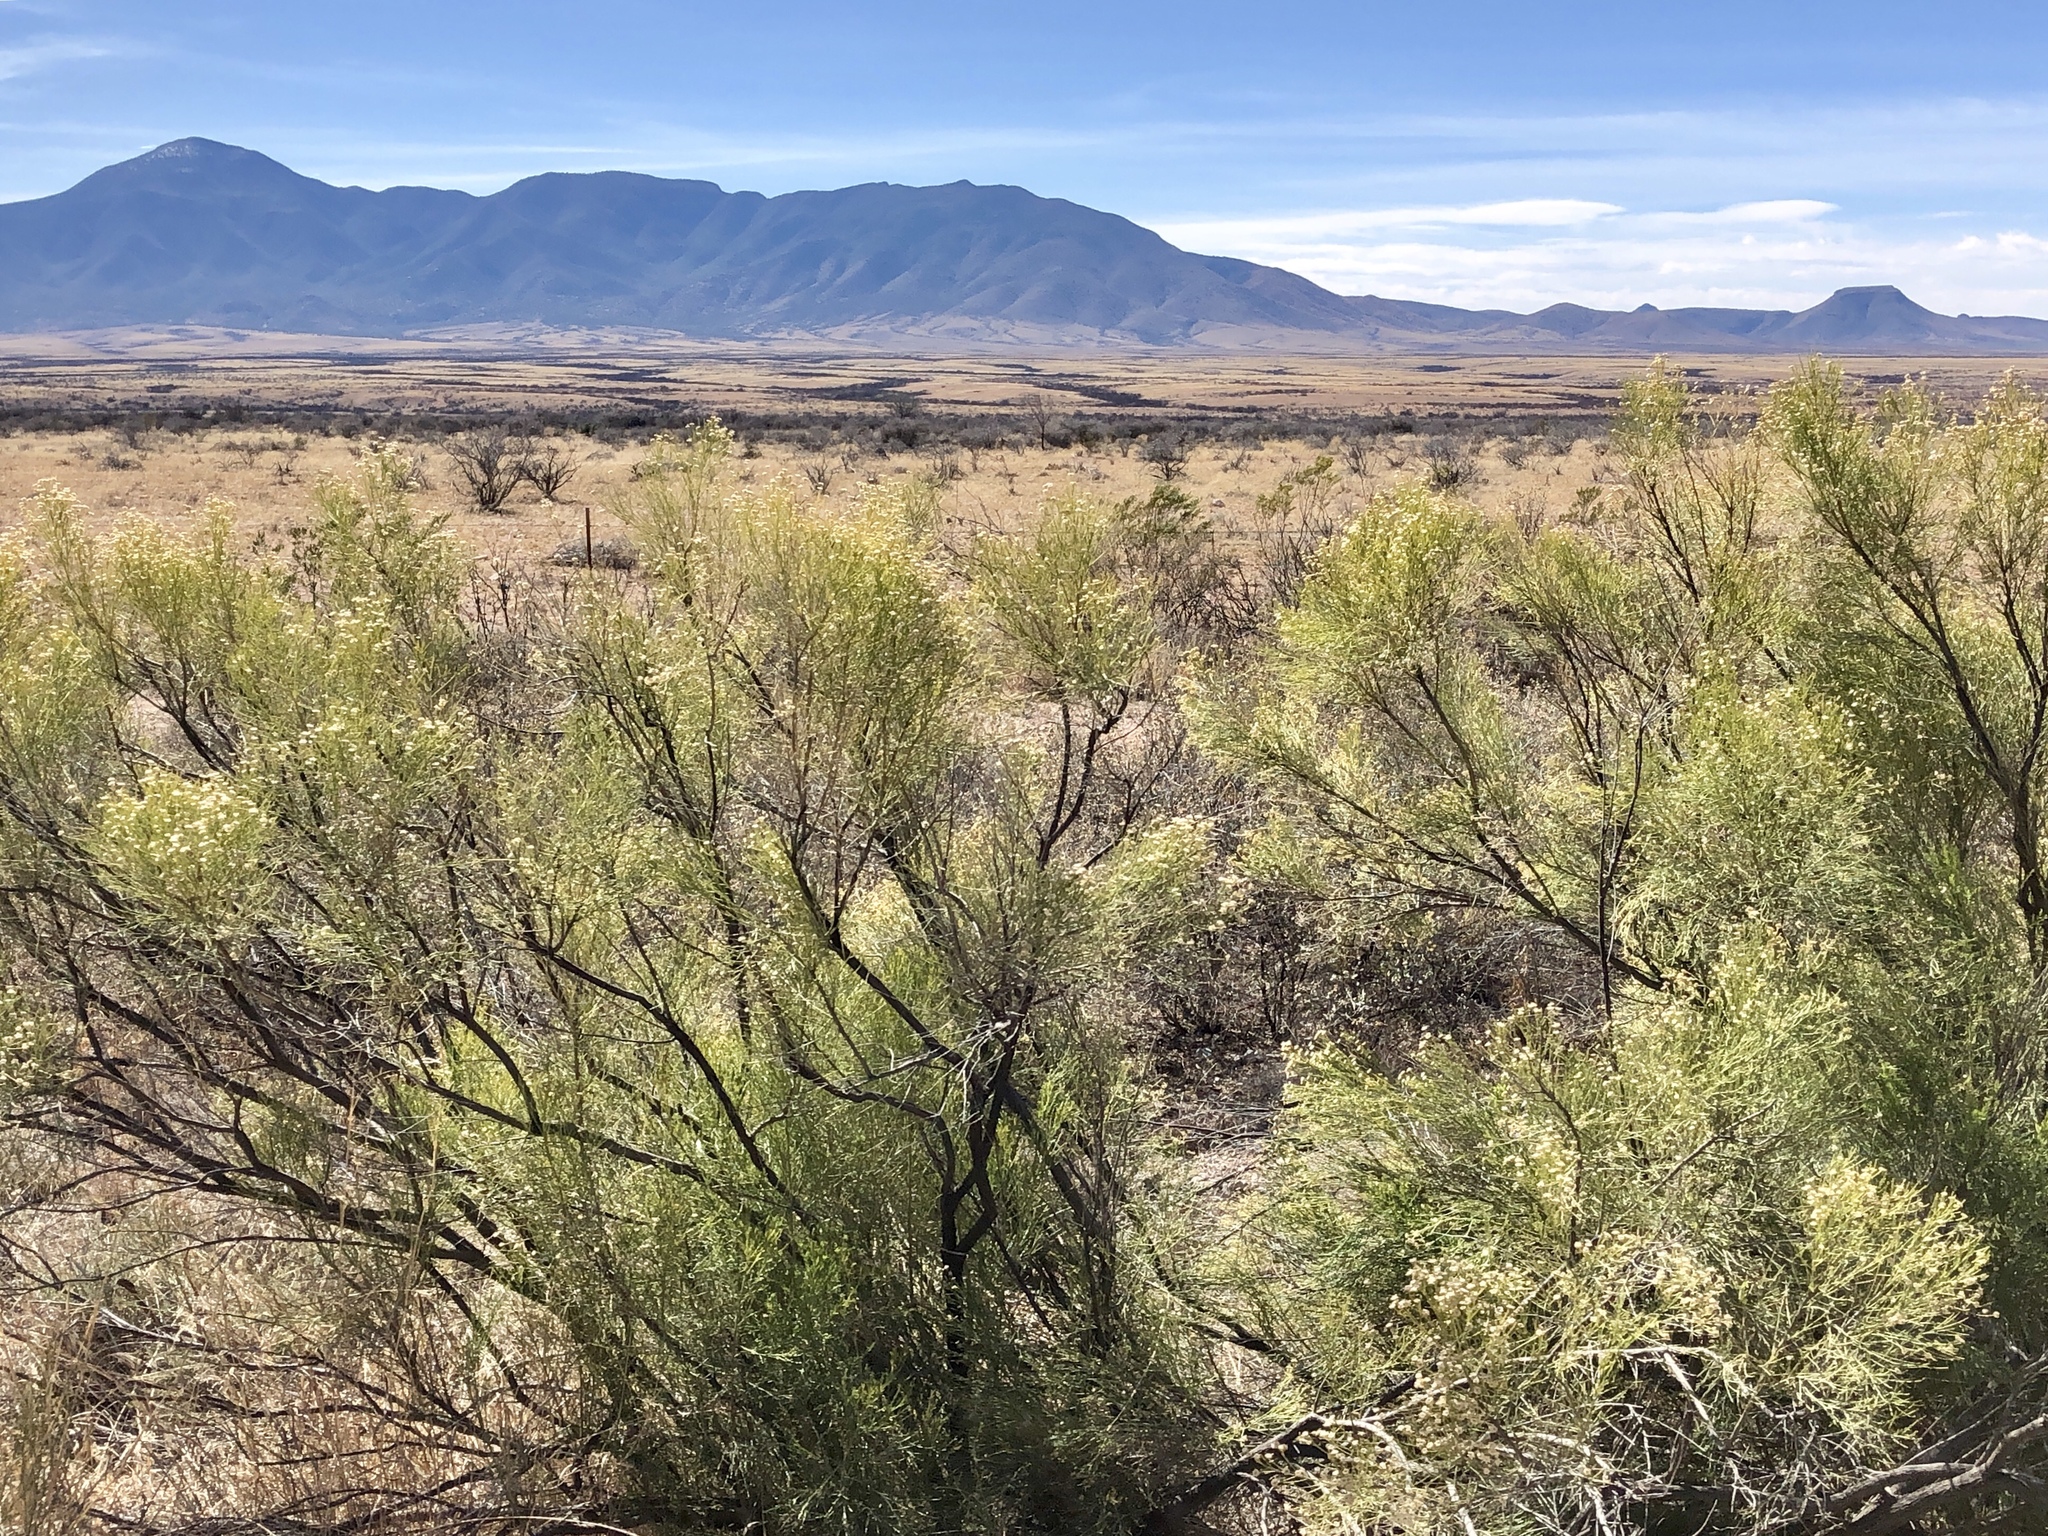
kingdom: Plantae
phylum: Tracheophyta
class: Magnoliopsida
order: Asterales
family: Asteraceae
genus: Baccharis
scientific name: Baccharis sarothroides
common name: Desert-broom
